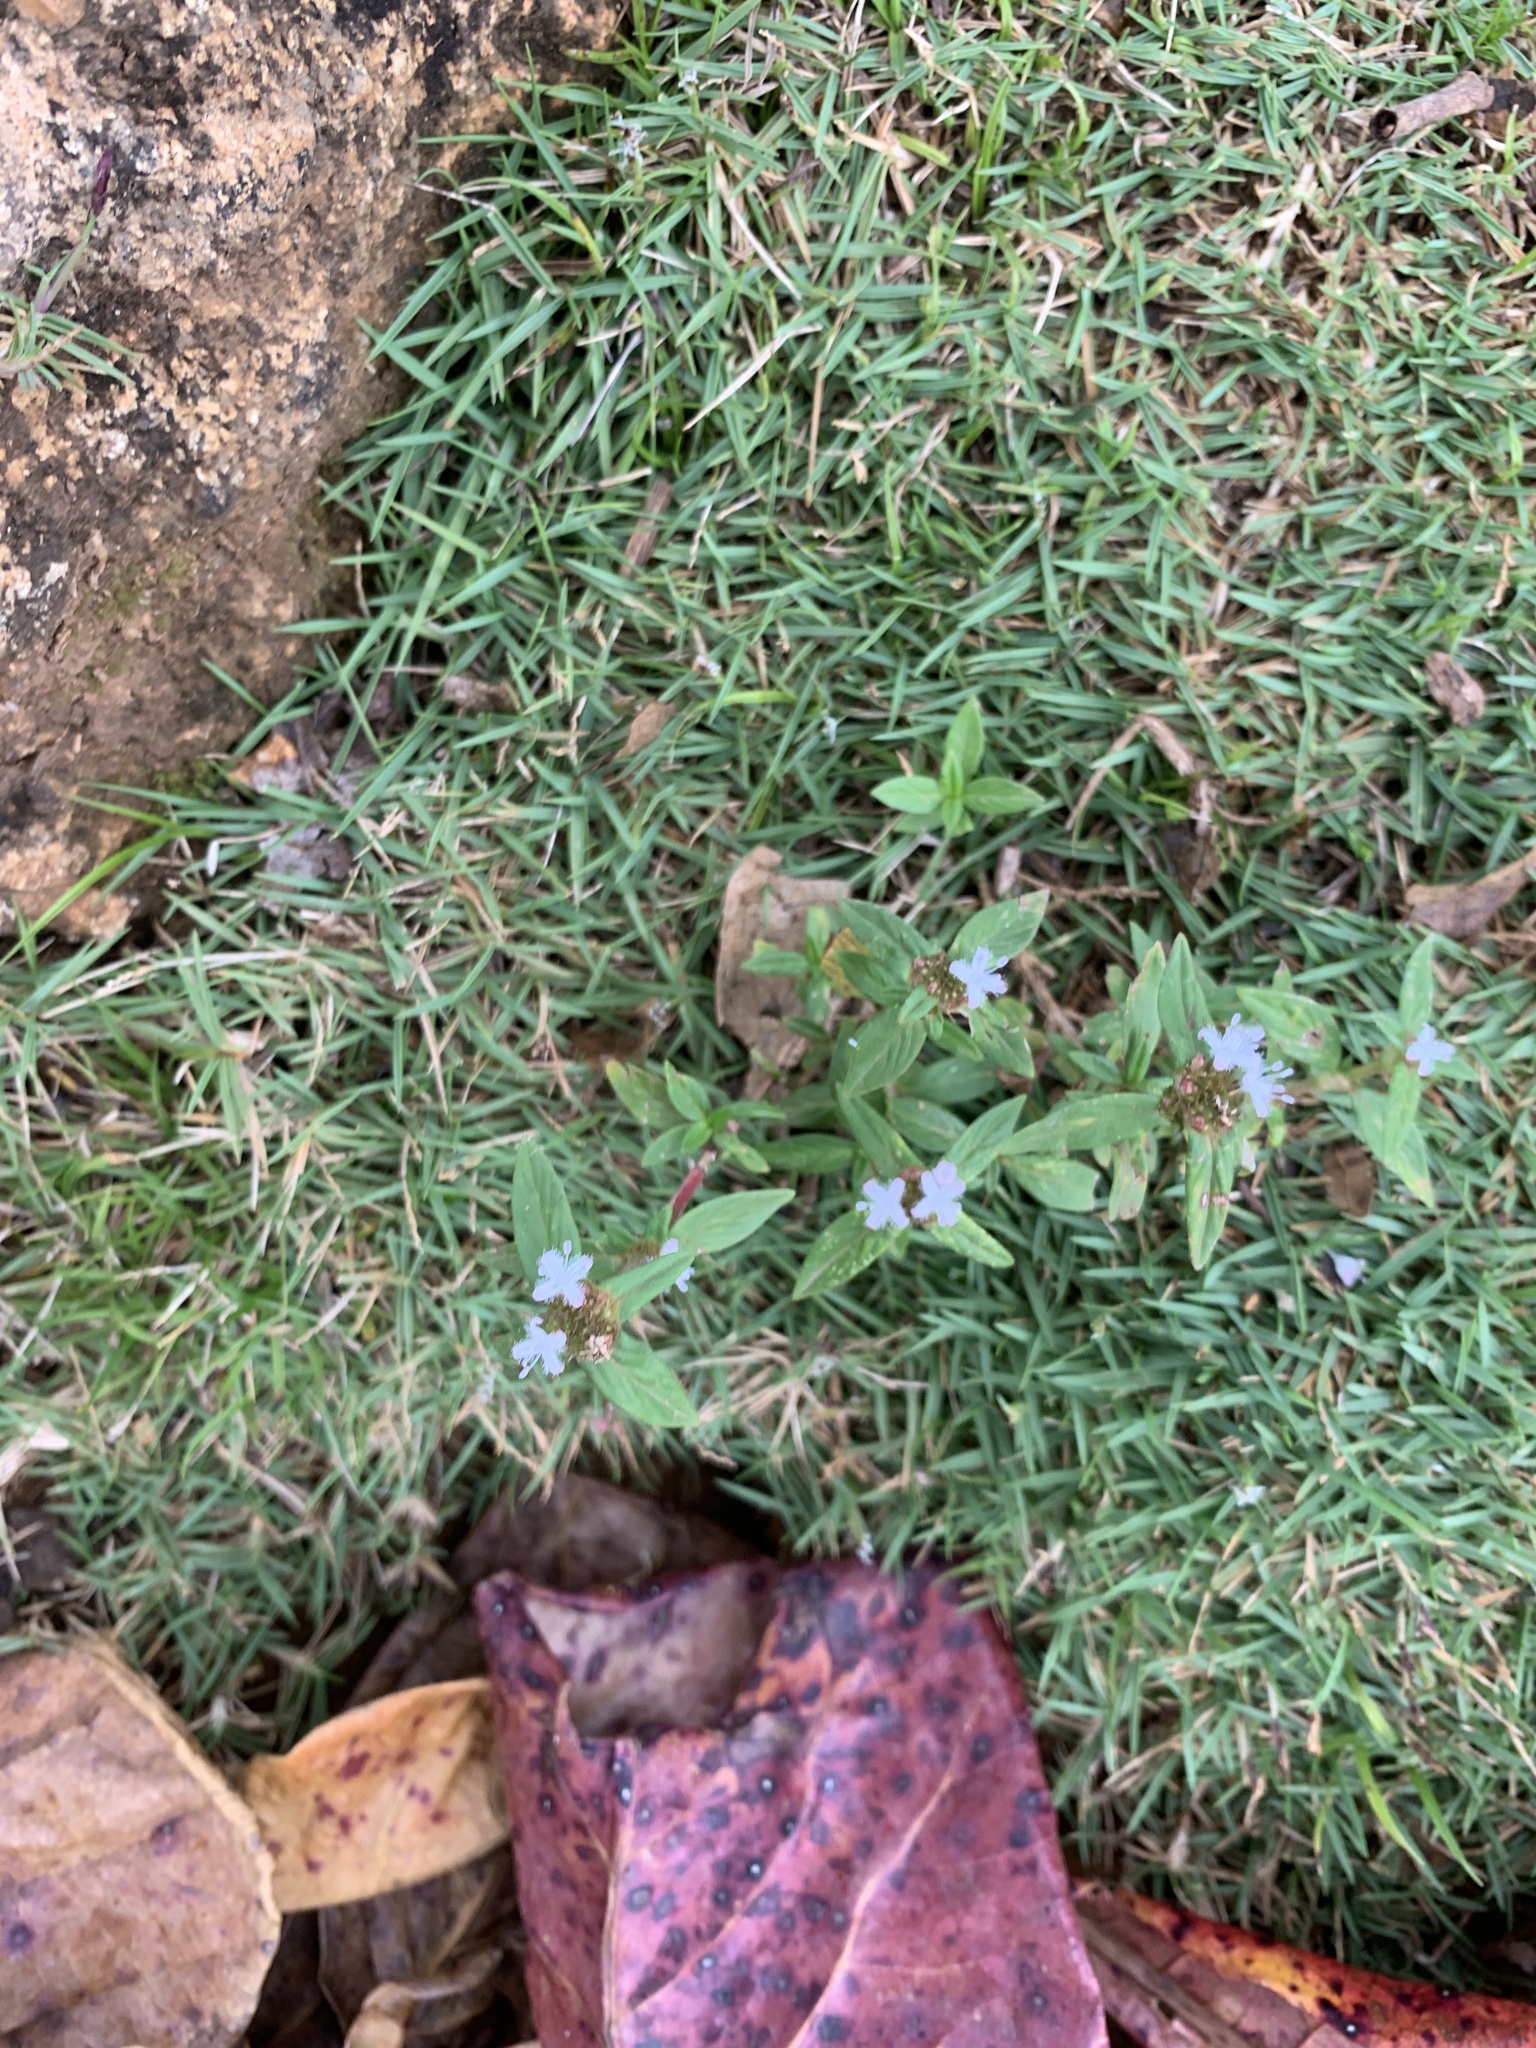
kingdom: Plantae
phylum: Tracheophyta
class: Magnoliopsida
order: Gentianales
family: Rubiaceae
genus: Spermacoce
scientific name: Spermacoce remota
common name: Woodland false buttonweed
